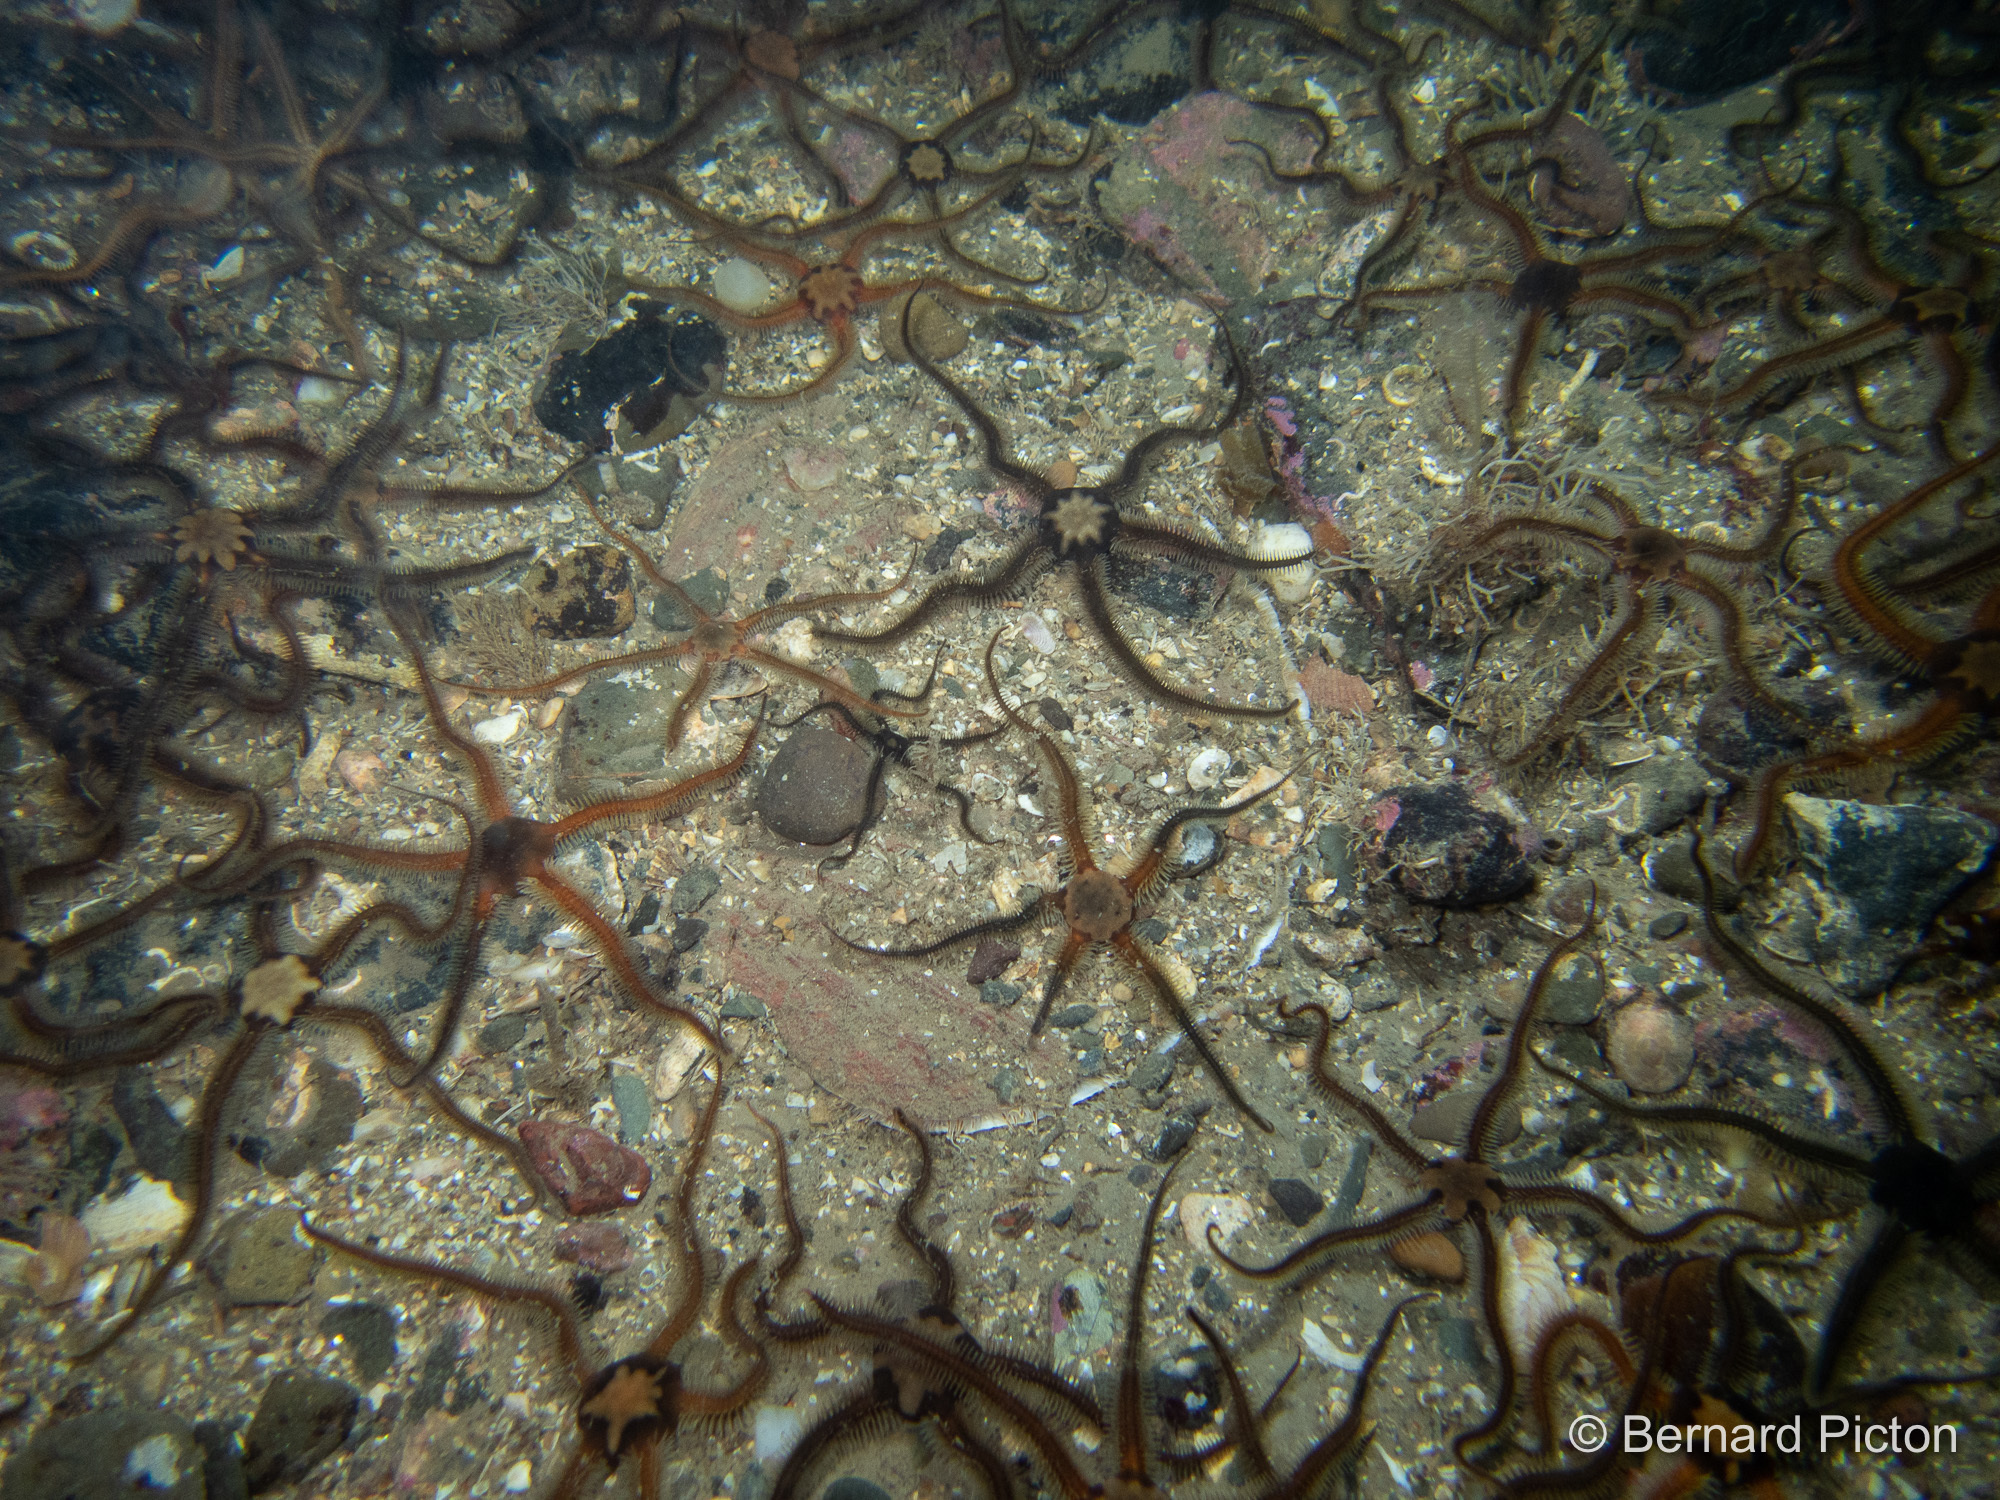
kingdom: Animalia
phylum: Mollusca
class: Bivalvia
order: Pectinida
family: Pectinidae
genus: Pecten
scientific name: Pecten maximus
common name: Great scallop
